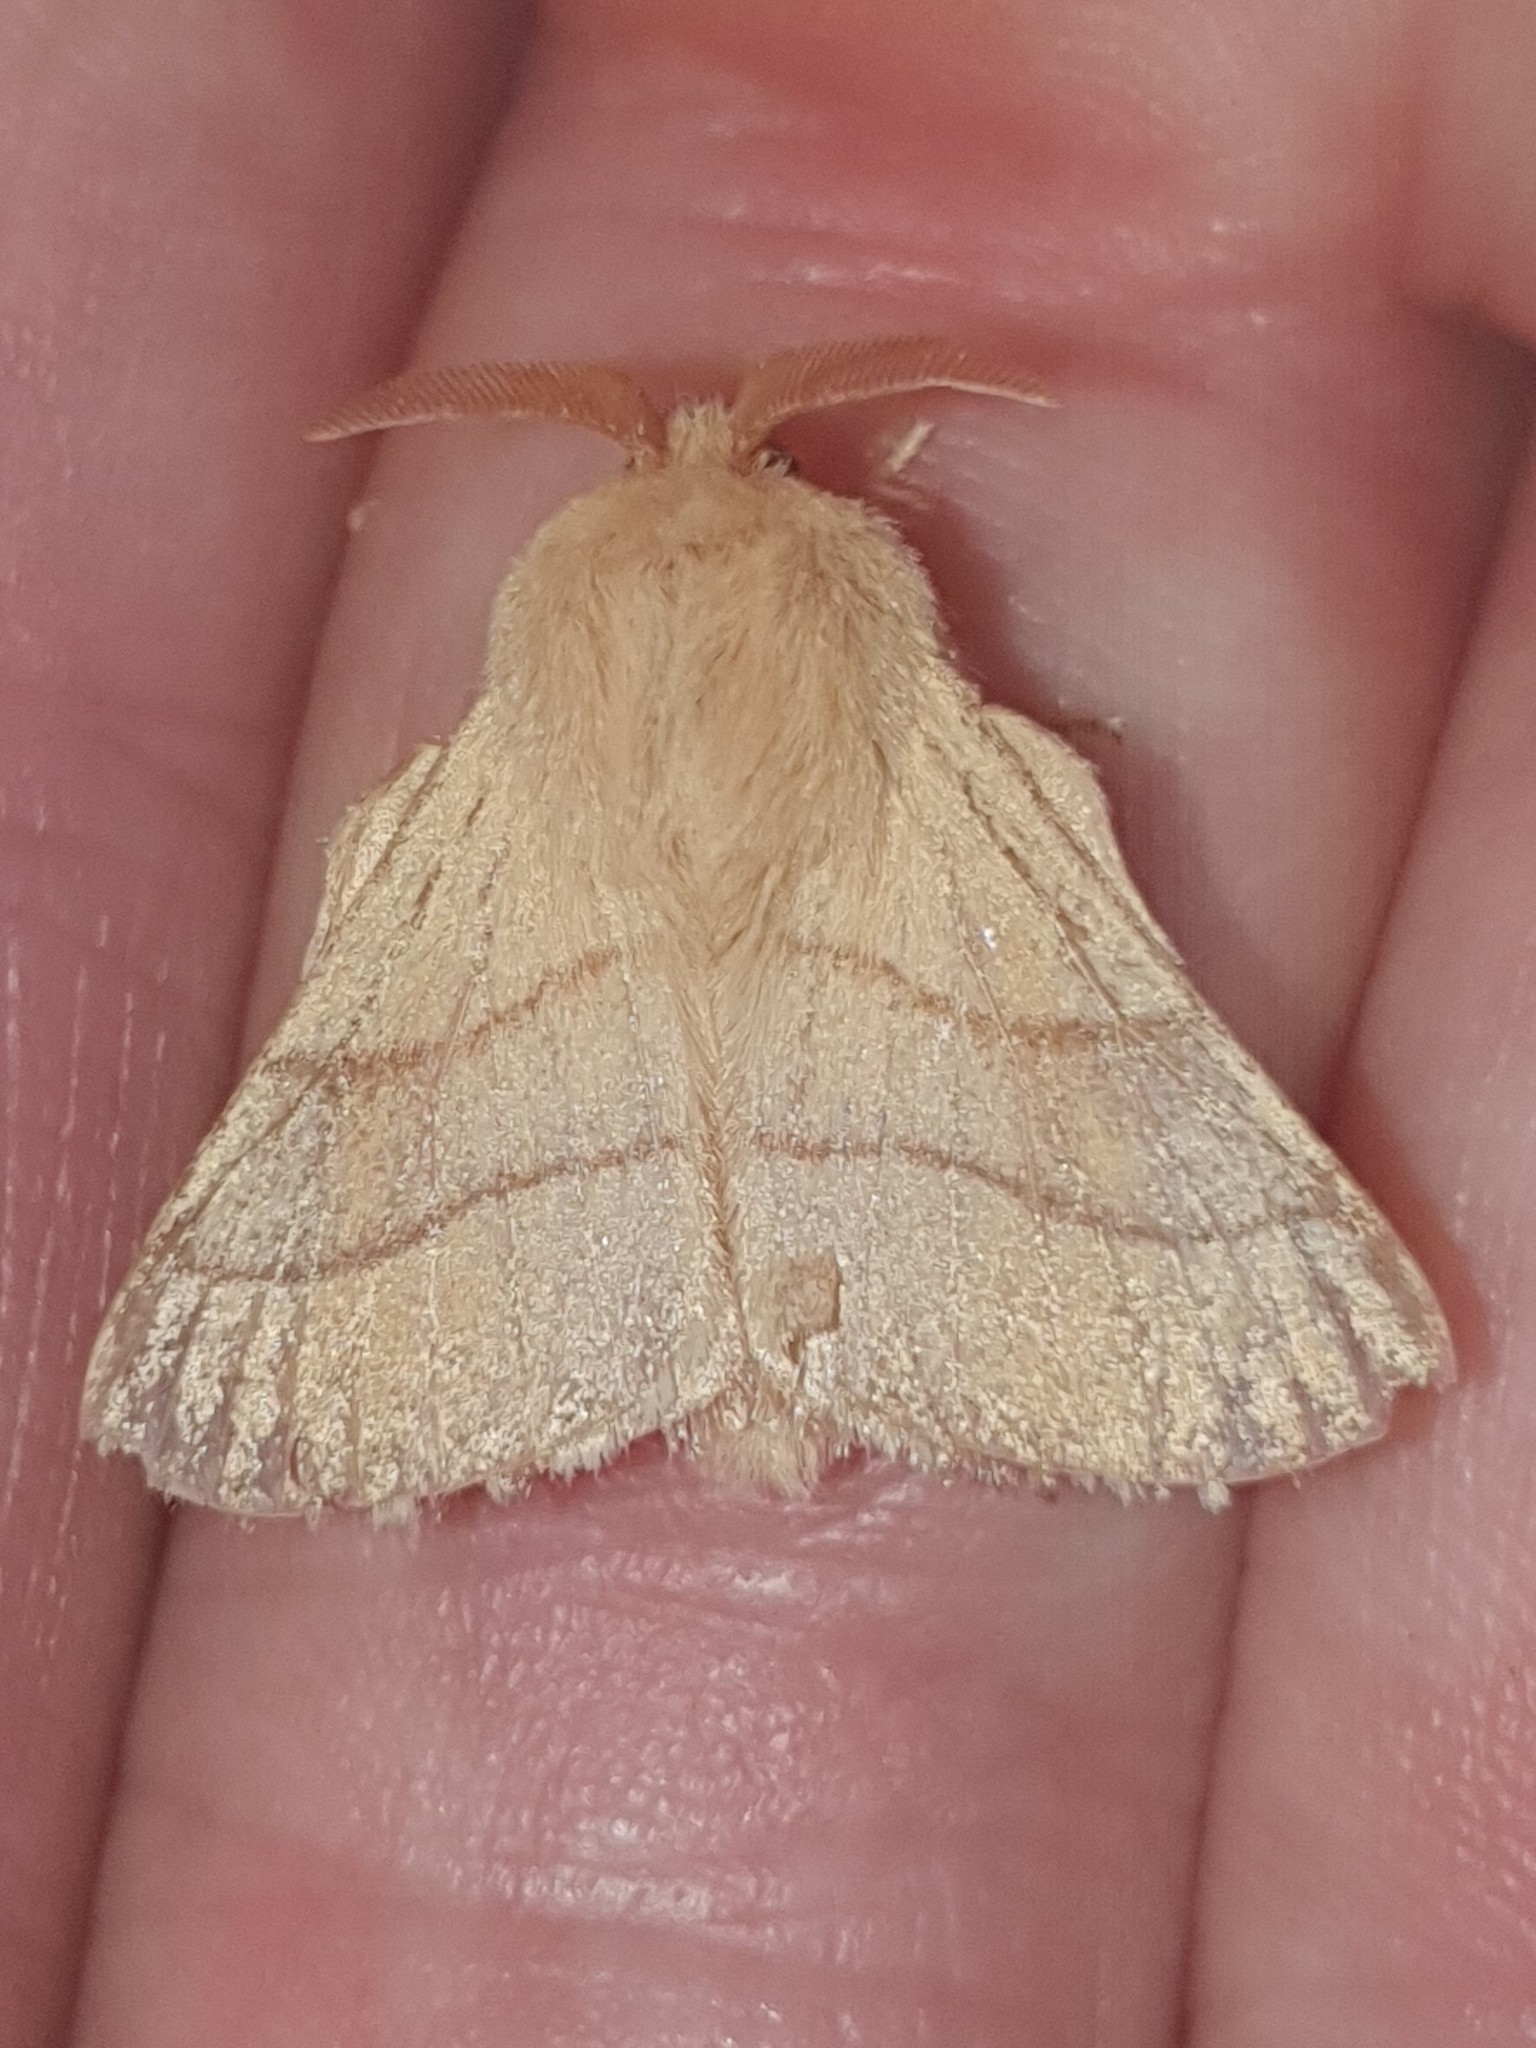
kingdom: Animalia
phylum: Arthropoda
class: Insecta
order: Lepidoptera
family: Lasiocampidae
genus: Malacosoma
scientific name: Malacosoma neustria
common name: The lackey
